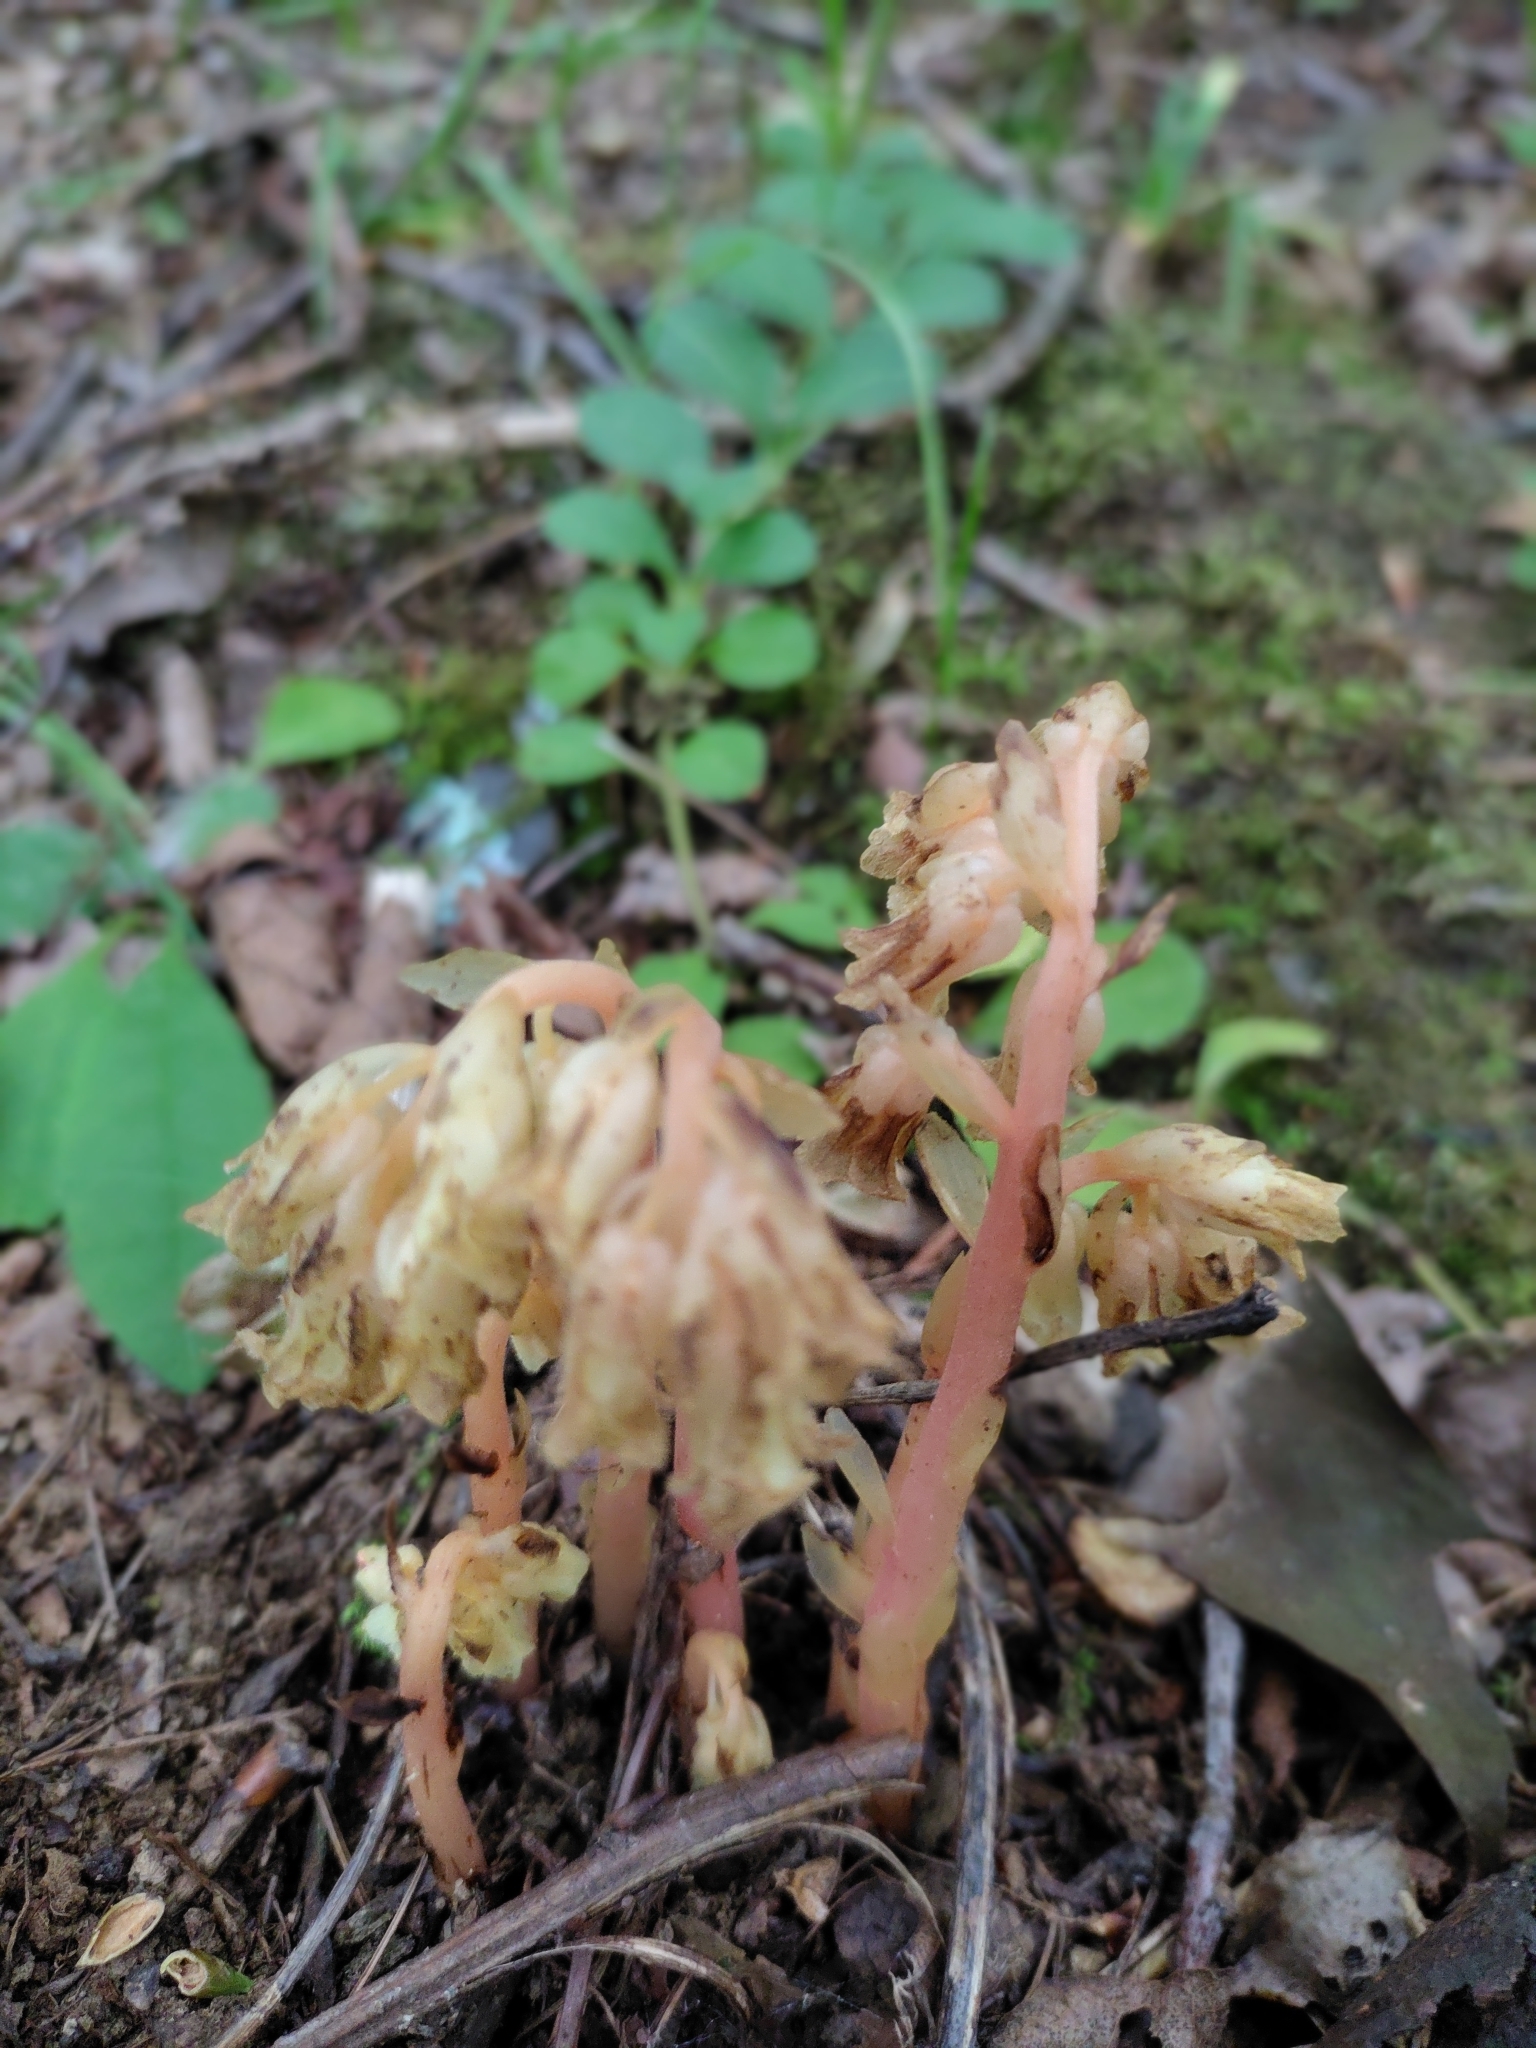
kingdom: Plantae
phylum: Tracheophyta
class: Magnoliopsida
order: Ericales
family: Ericaceae
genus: Hypopitys
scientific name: Hypopitys monotropa
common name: Yellow bird's-nest
